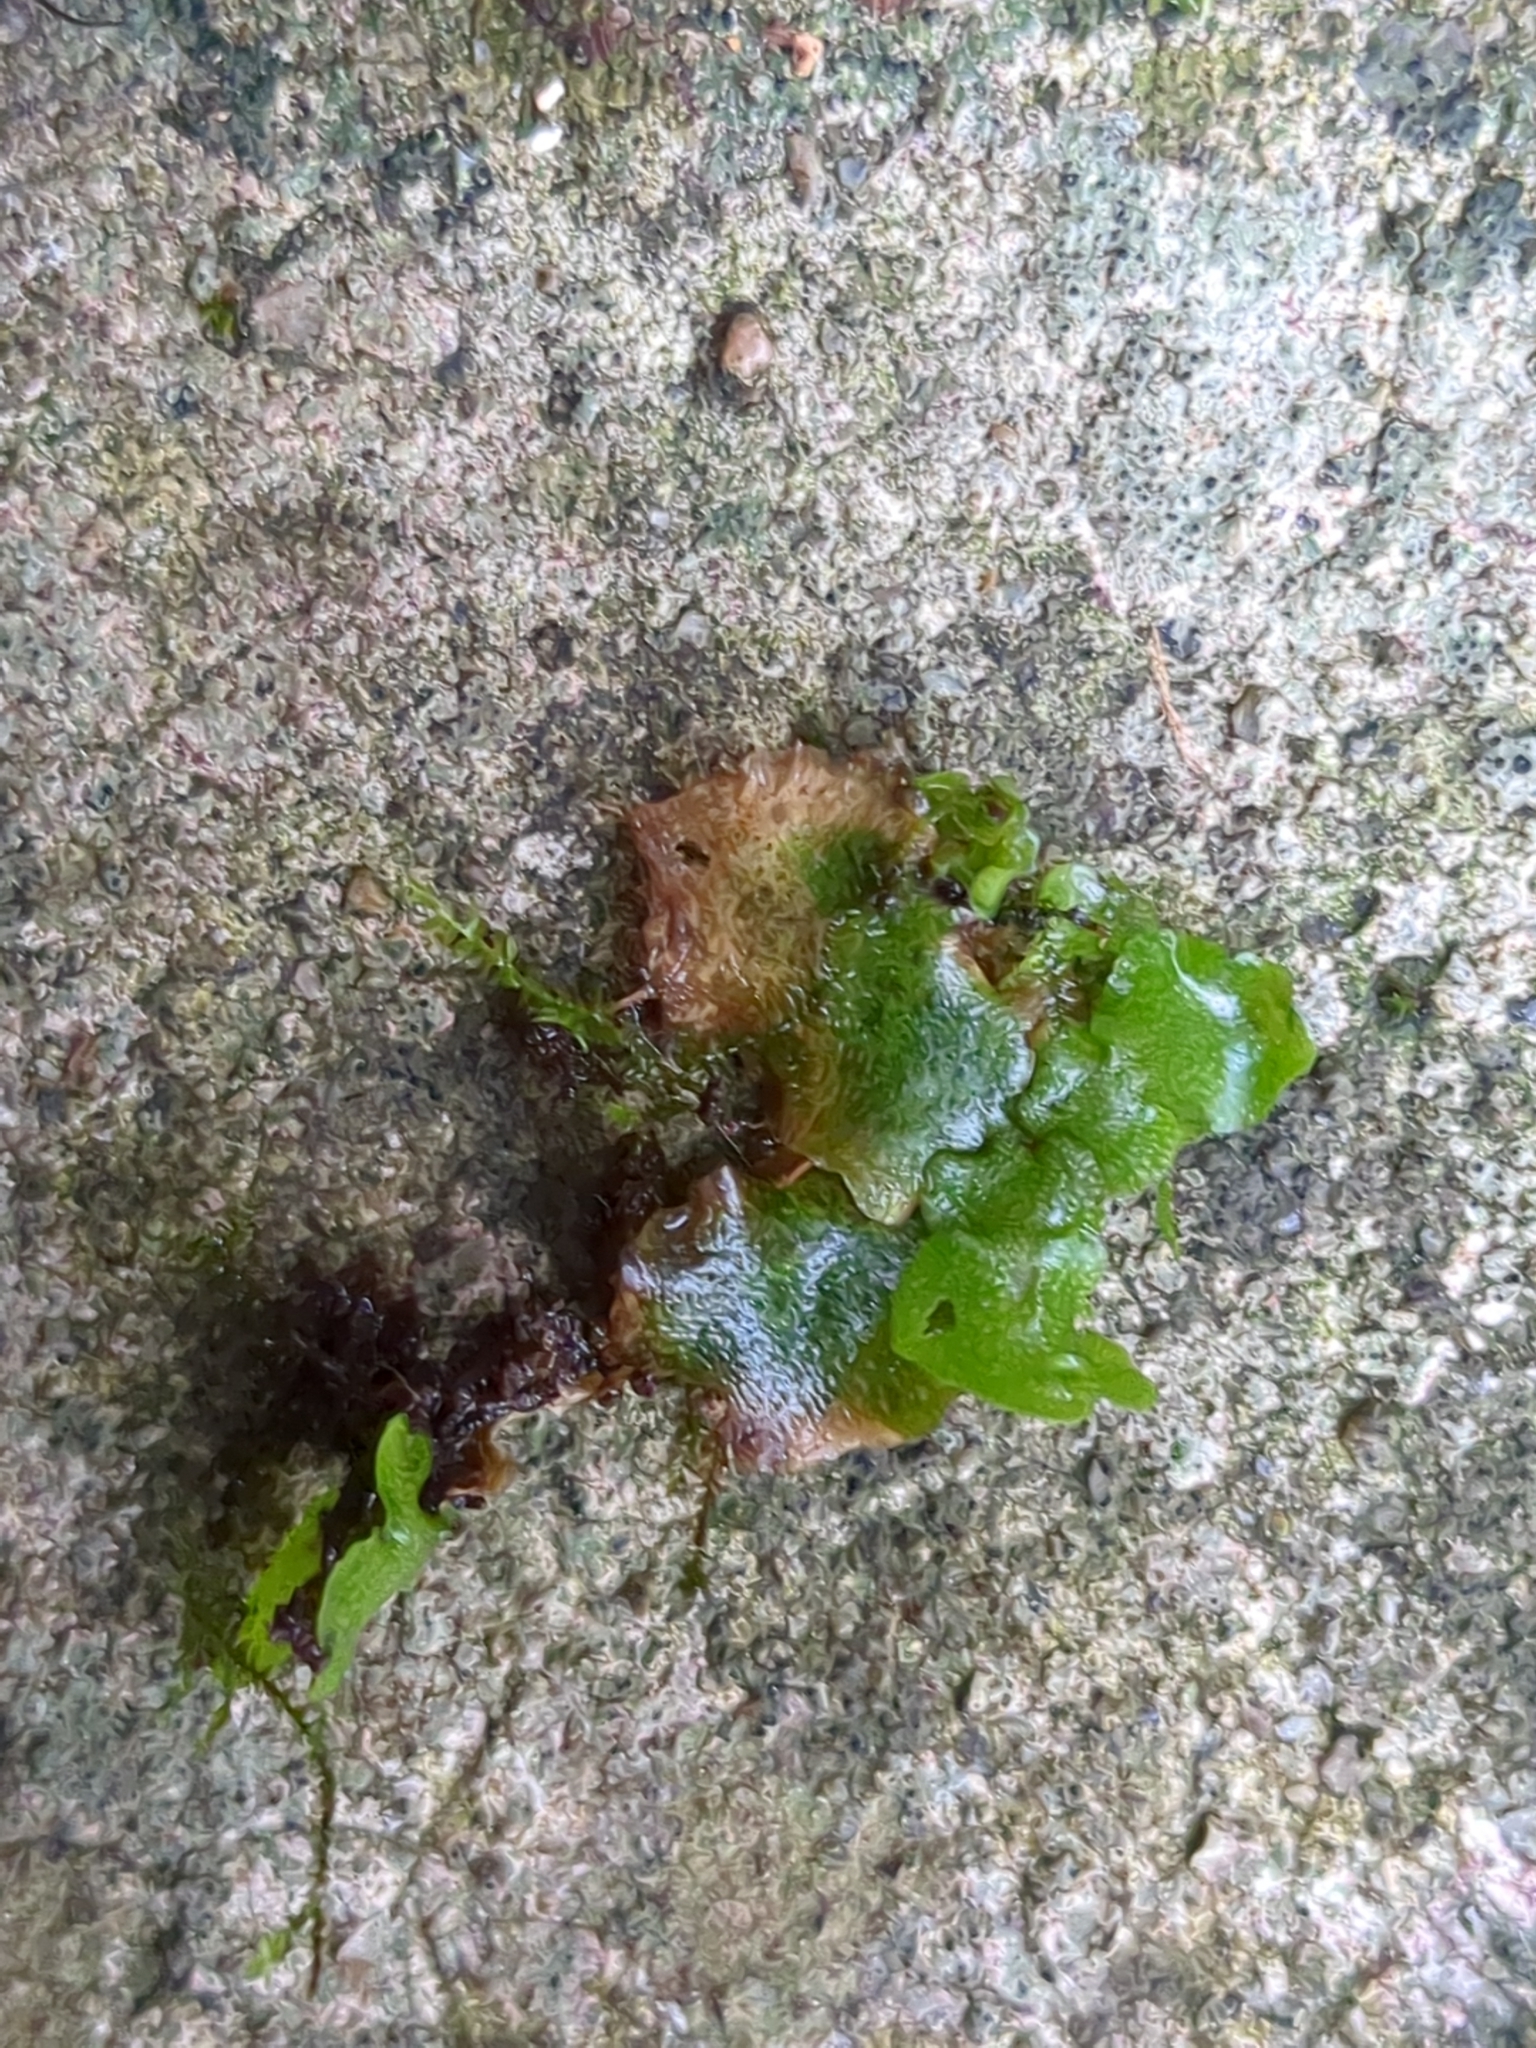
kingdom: Plantae
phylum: Marchantiophyta
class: Marchantiopsida
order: Lunulariales
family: Lunulariaceae
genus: Lunularia
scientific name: Lunularia cruciata
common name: Crescent-cup liverwort
